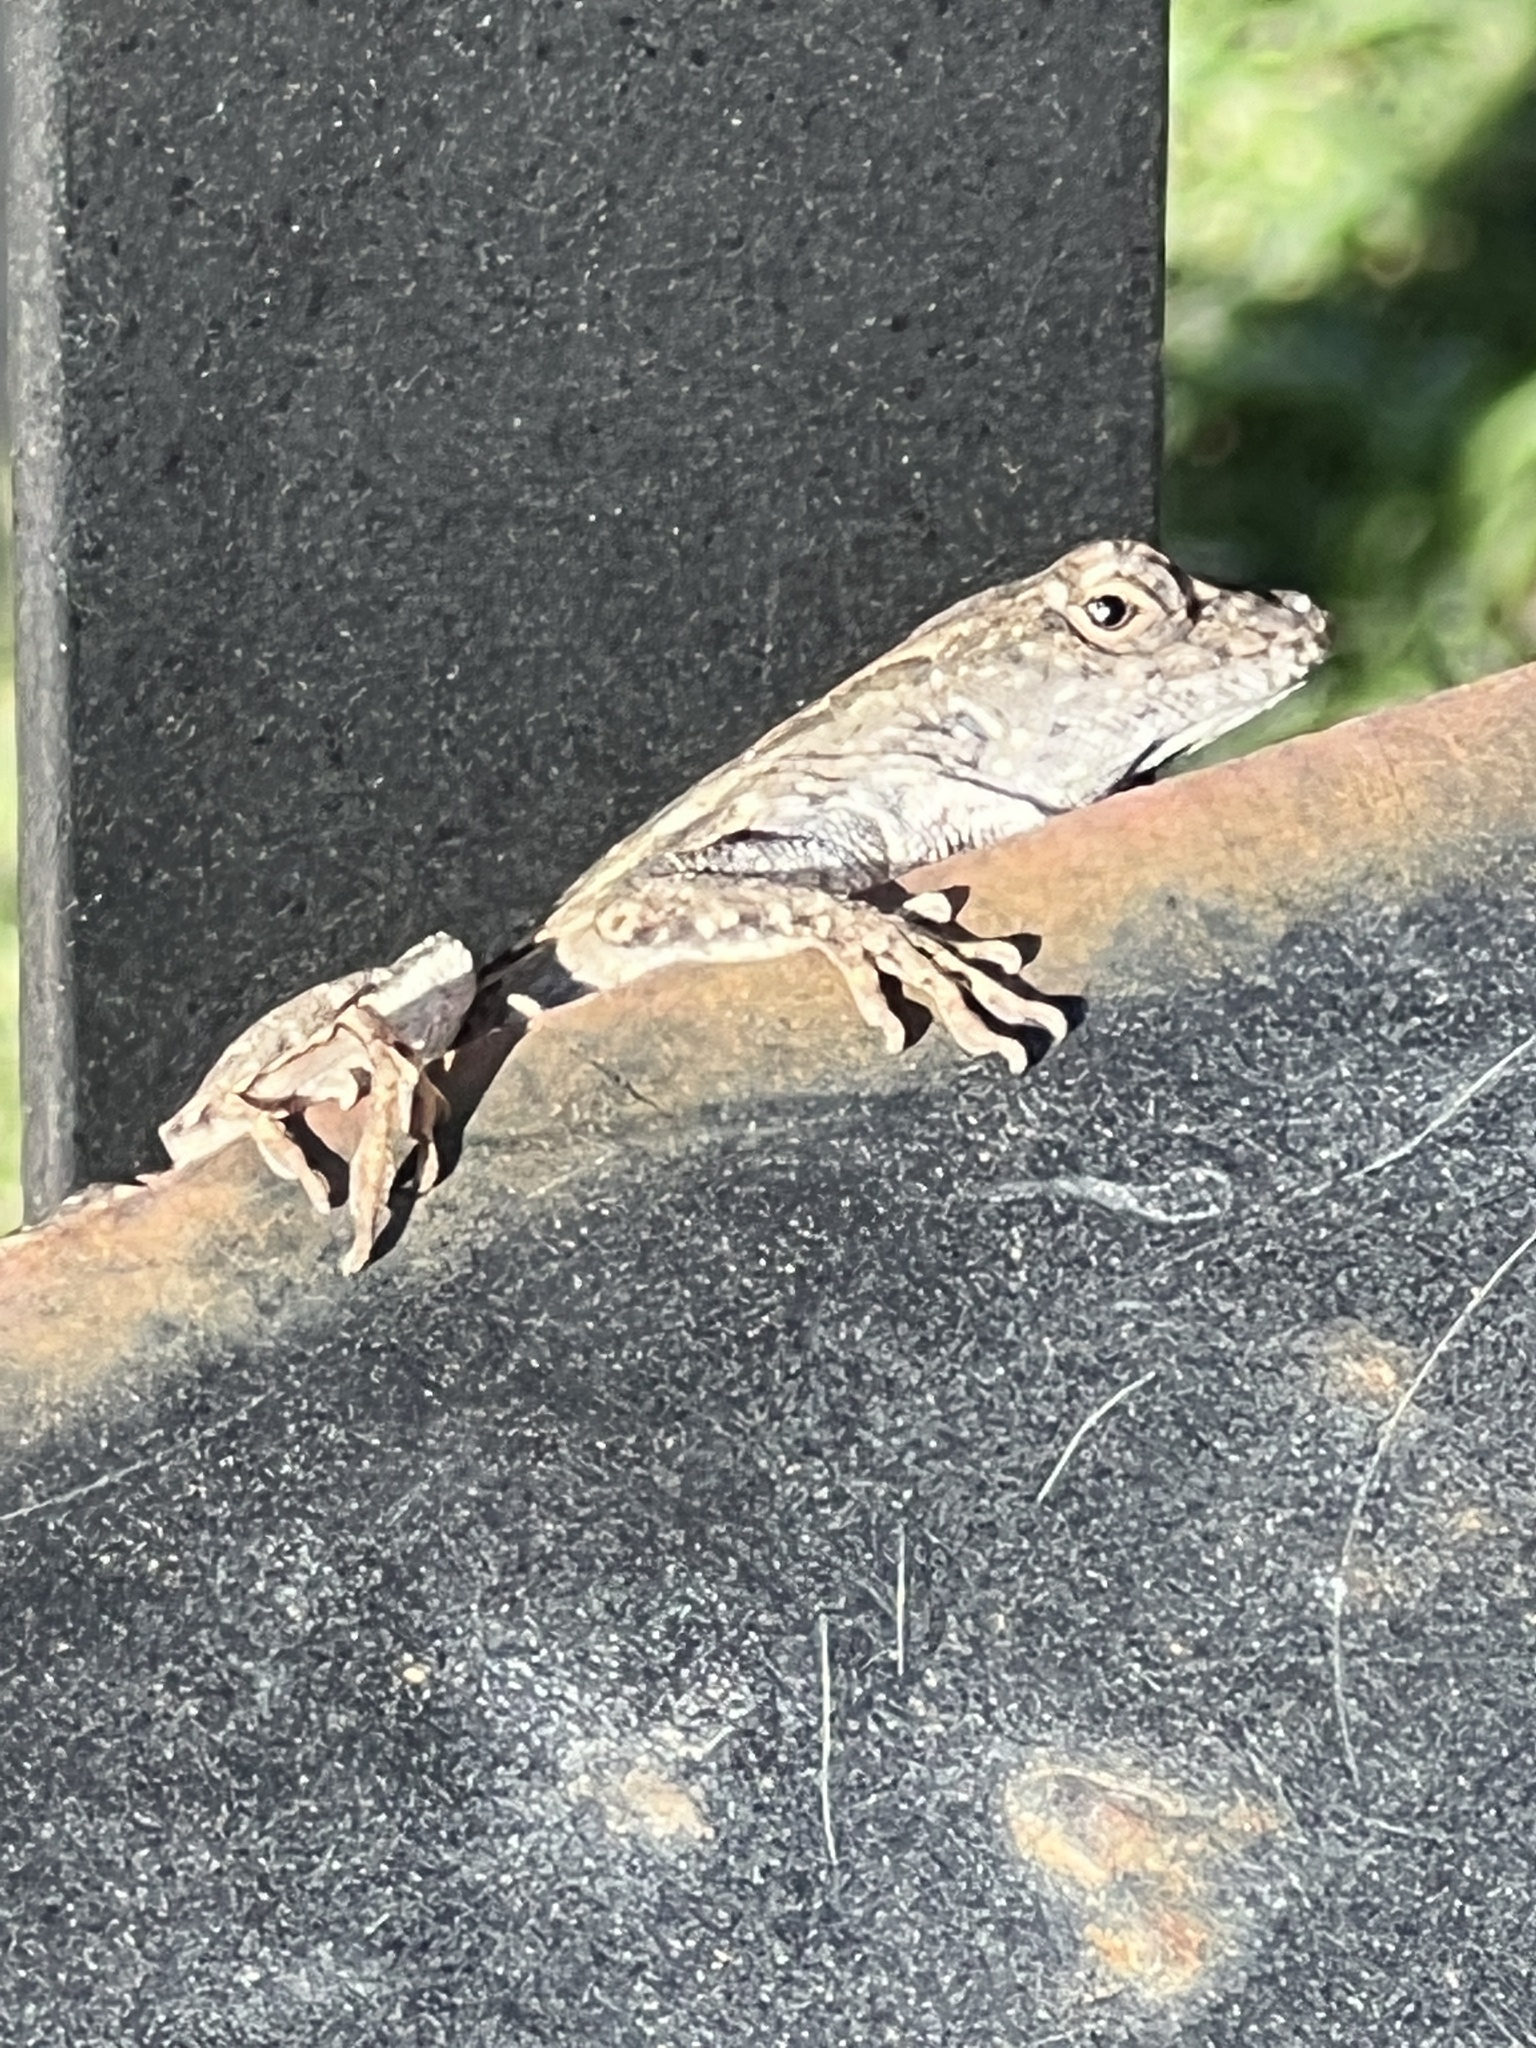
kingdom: Animalia
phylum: Chordata
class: Squamata
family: Dactyloidae
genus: Anolis
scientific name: Anolis sagrei
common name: Brown anole
